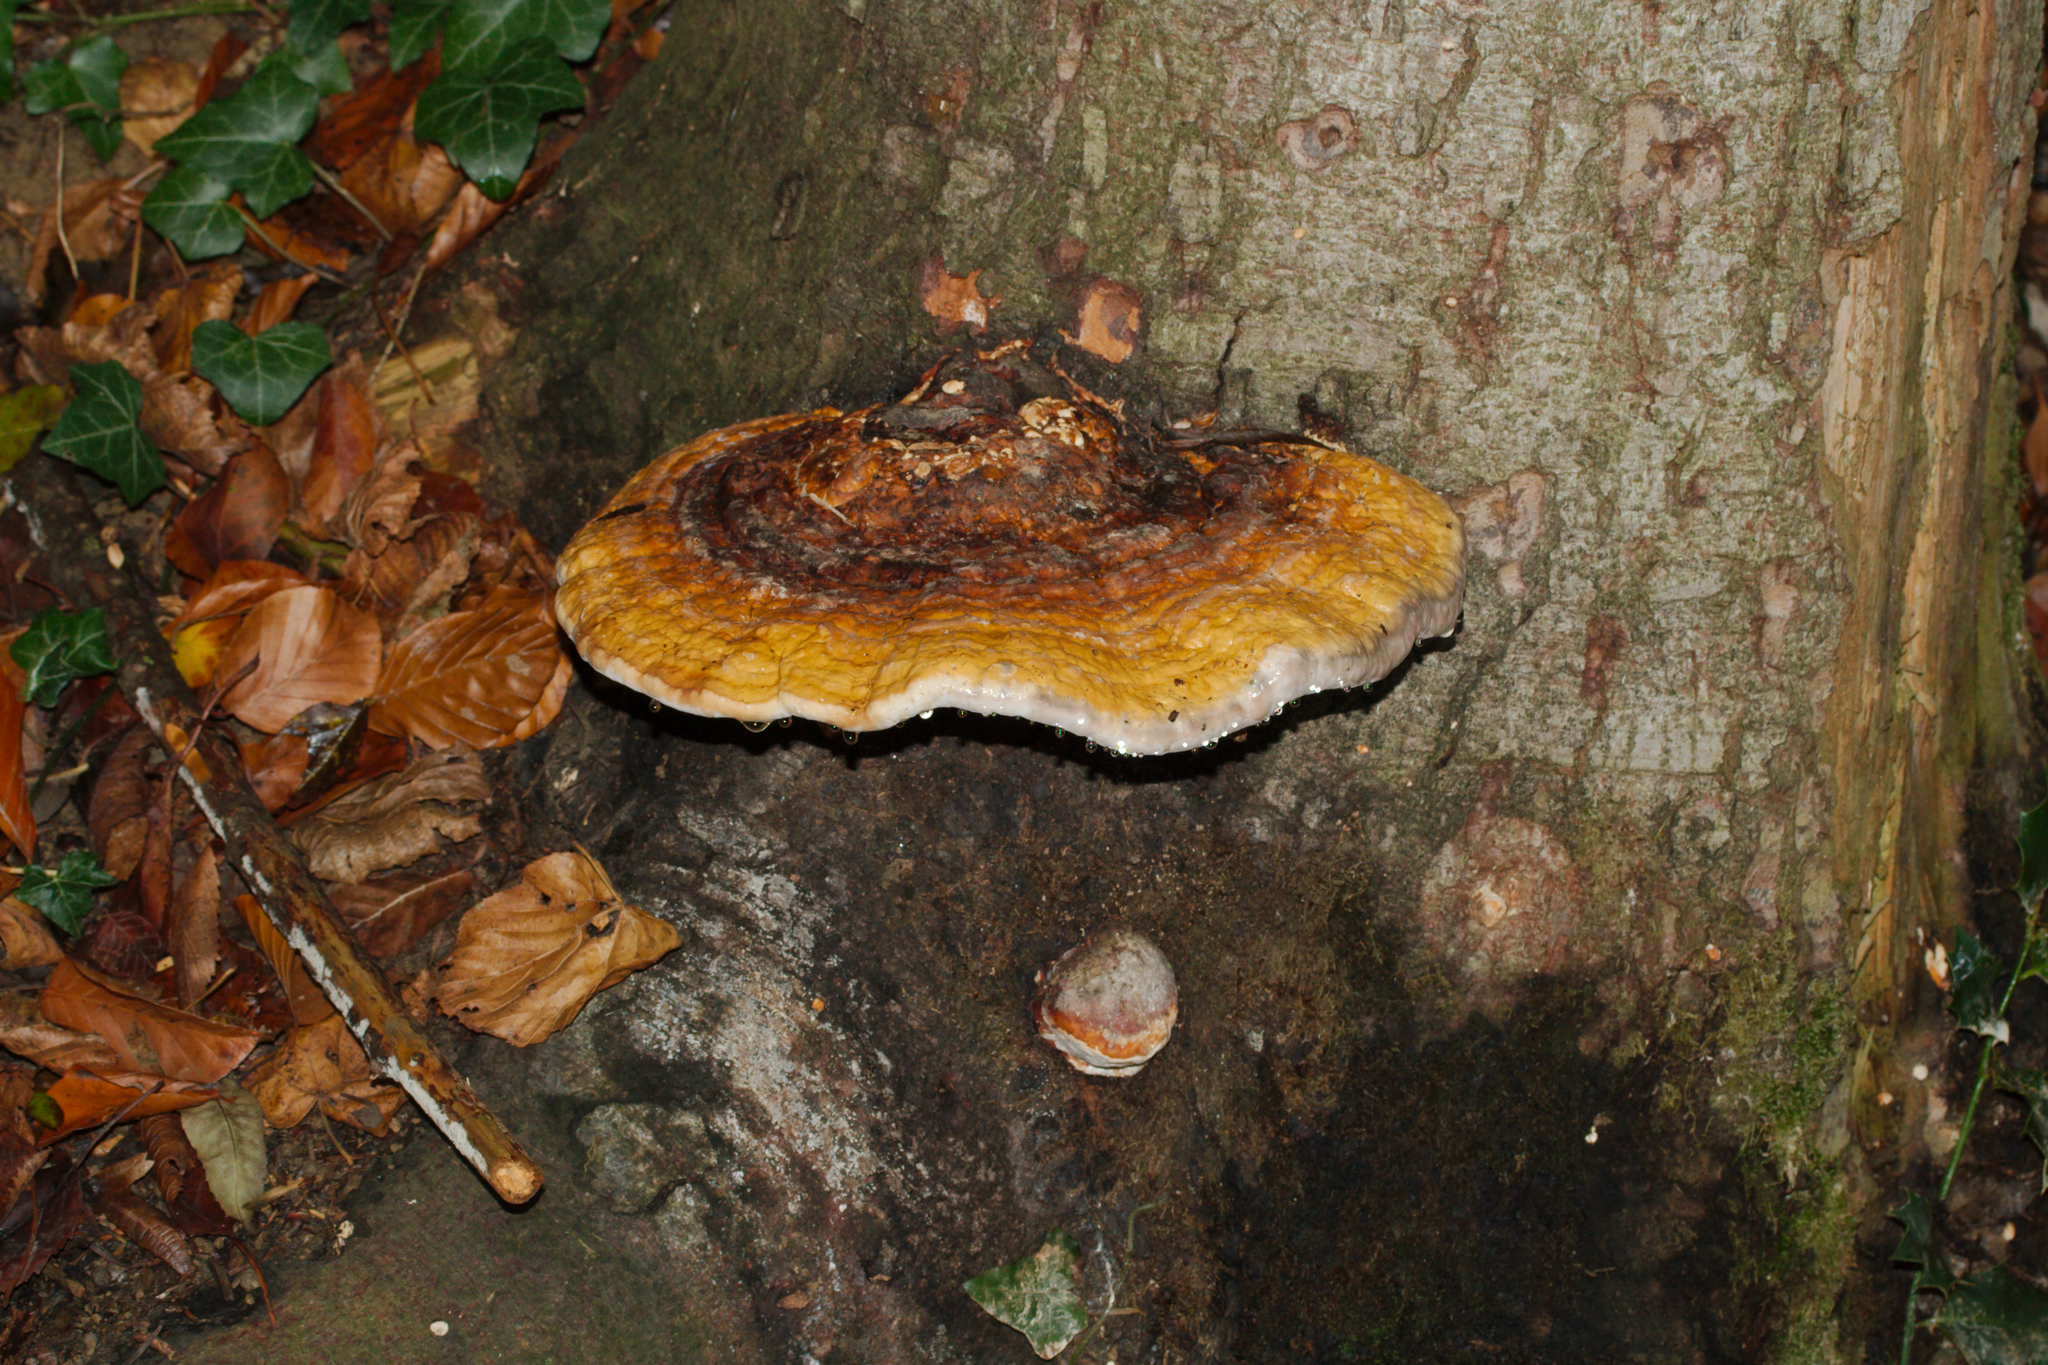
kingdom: Fungi
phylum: Basidiomycota
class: Agaricomycetes
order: Polyporales
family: Fomitopsidaceae
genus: Fomitopsis
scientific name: Fomitopsis pinicola
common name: Red-belted bracket
